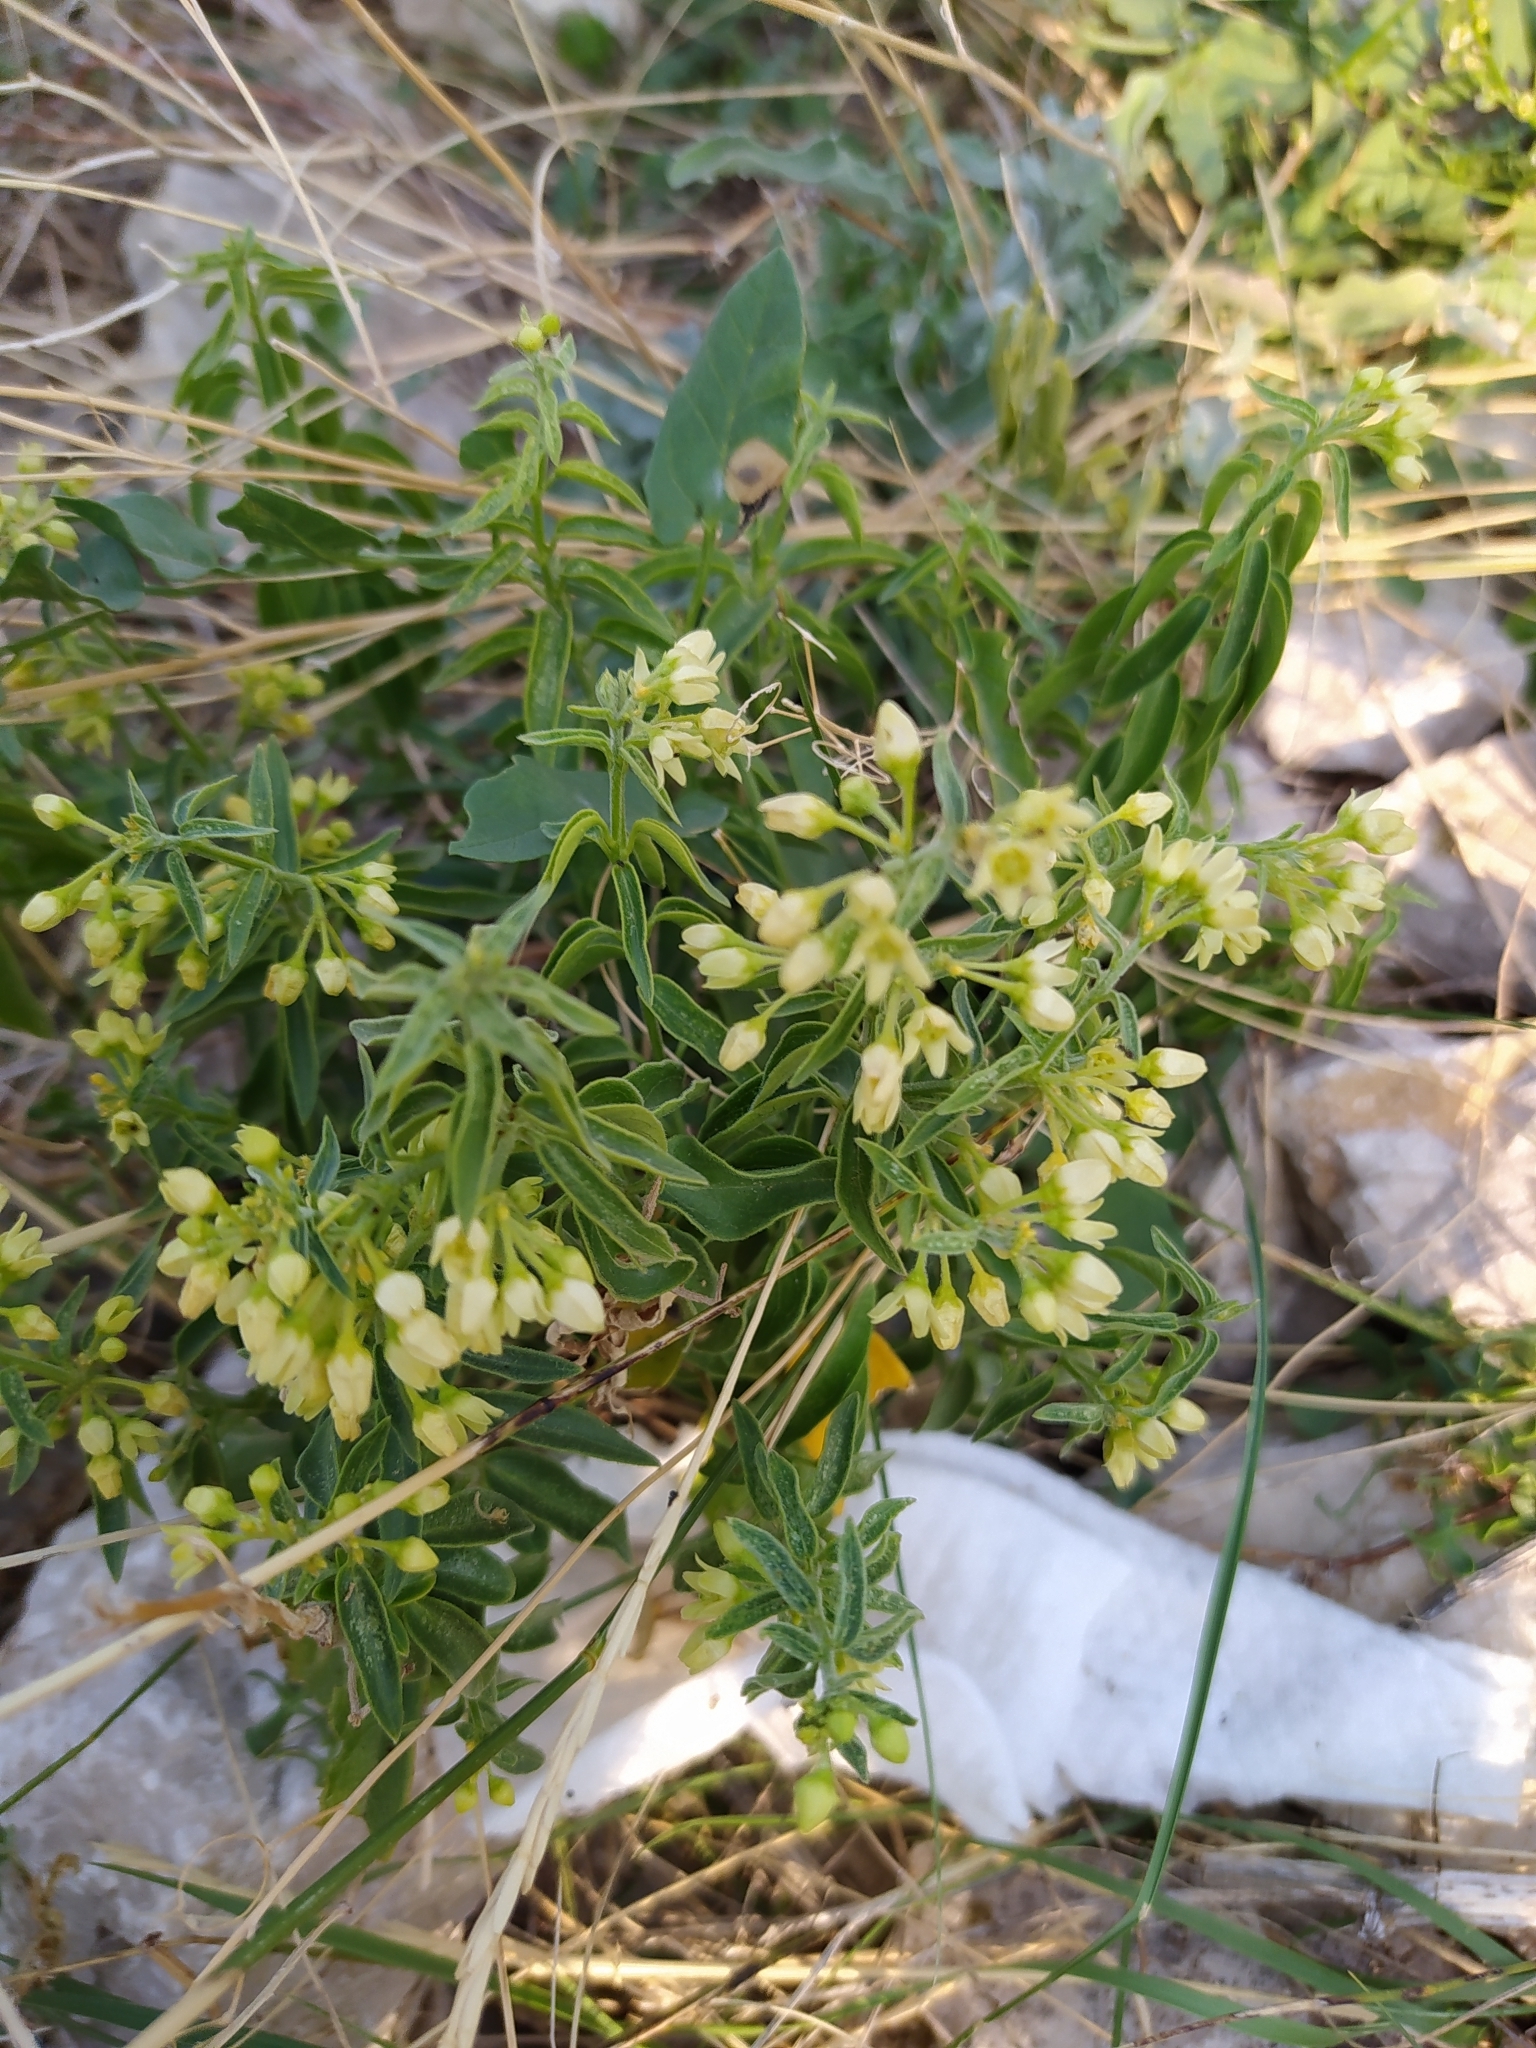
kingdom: Plantae
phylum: Tracheophyta
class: Magnoliopsida
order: Gentianales
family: Apocynaceae
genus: Vincetoxicum
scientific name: Vincetoxicum hirundinaria
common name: White swallowwort
